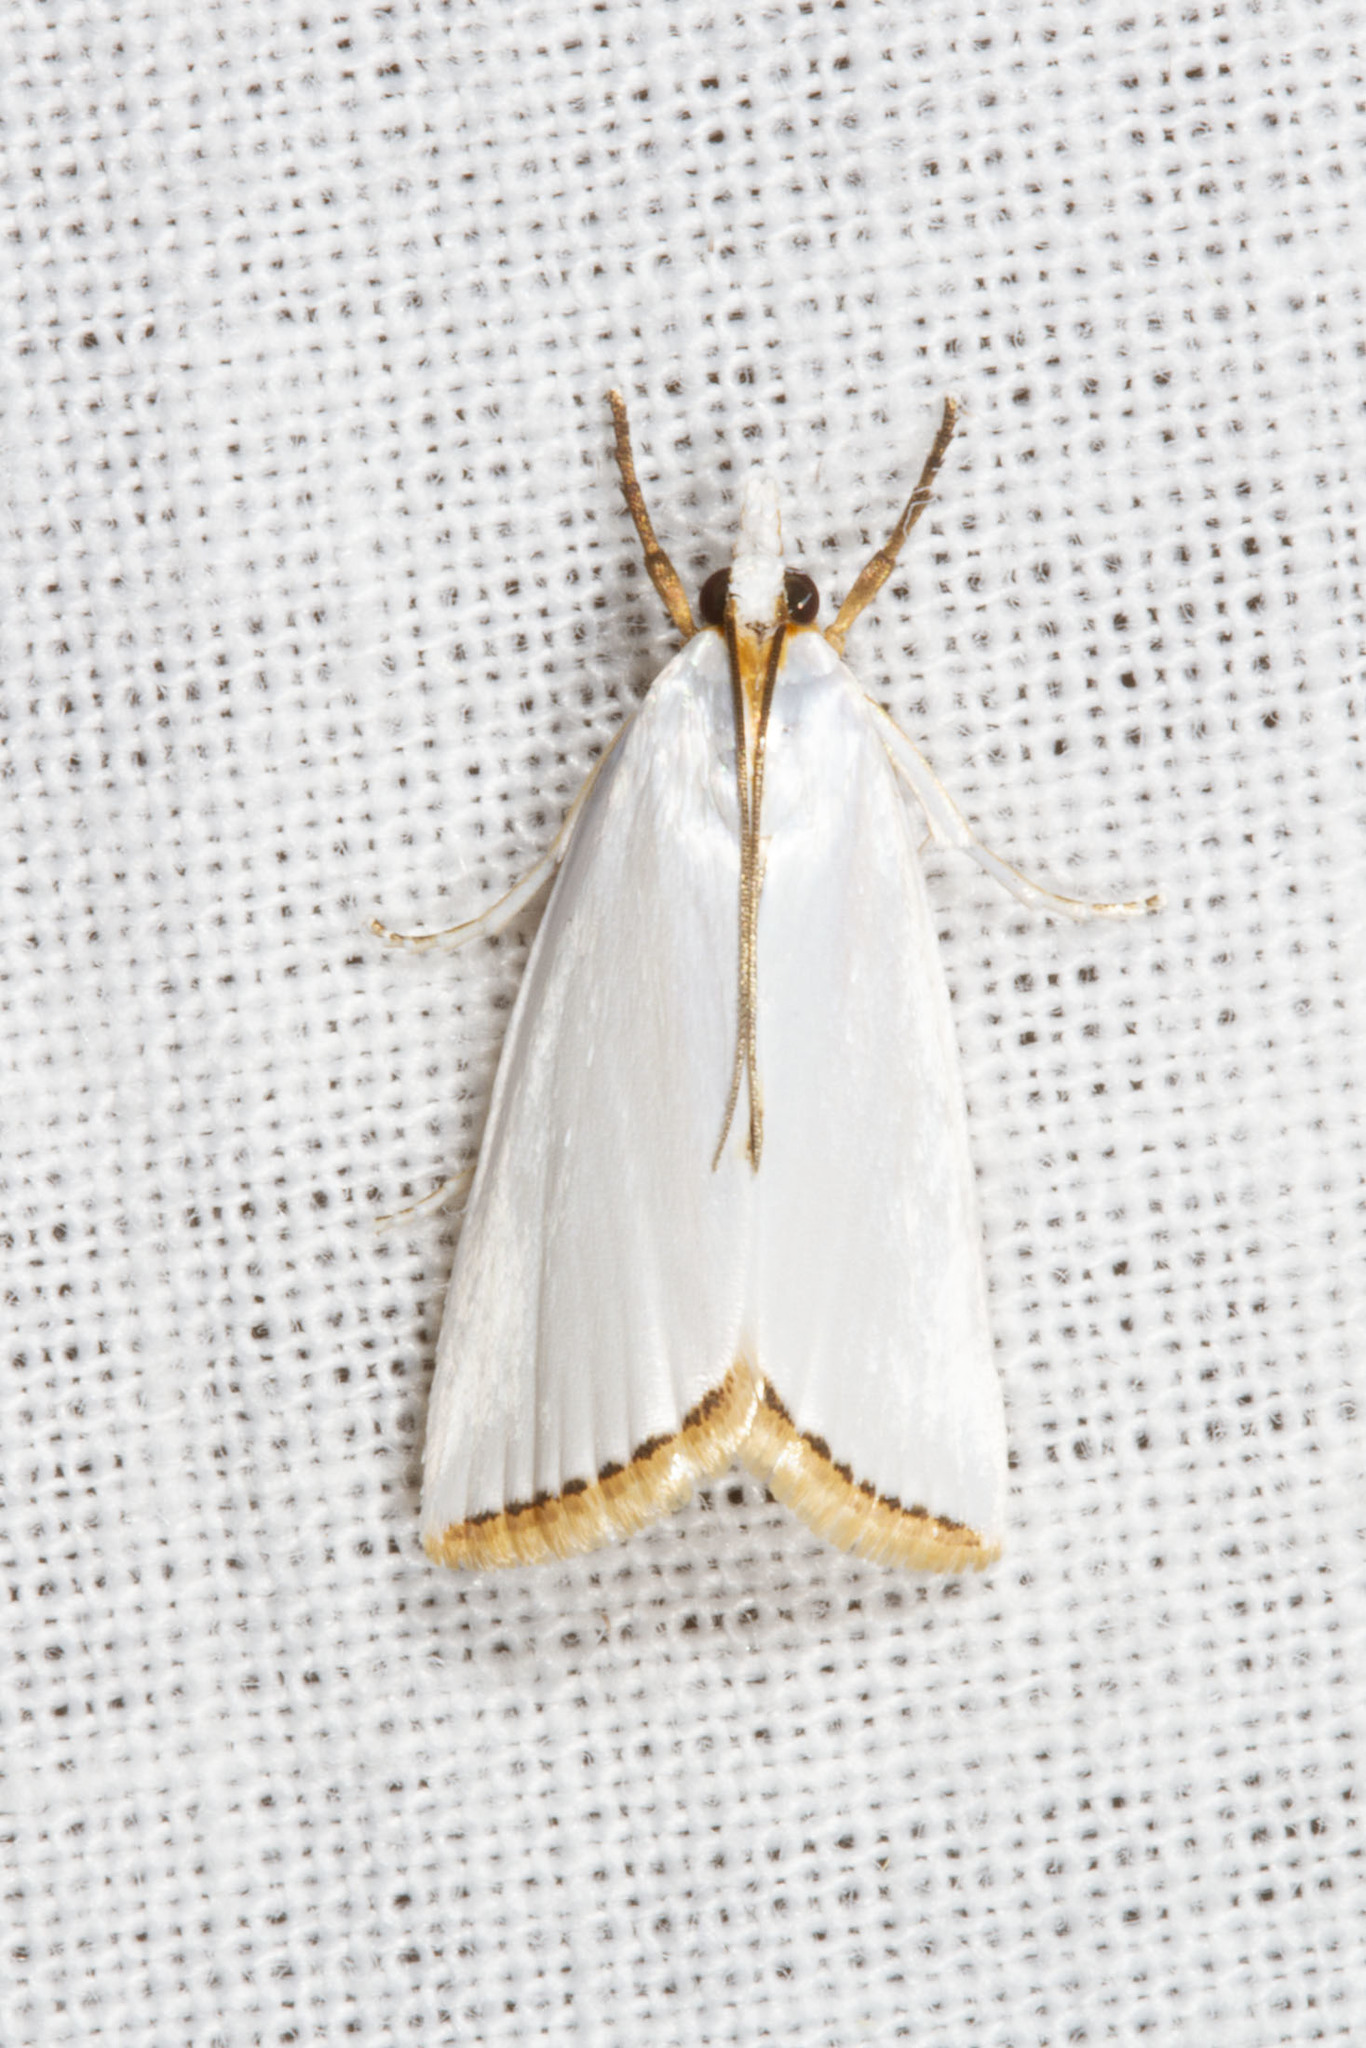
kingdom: Animalia
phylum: Arthropoda
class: Insecta
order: Lepidoptera
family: Crambidae
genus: Argyria
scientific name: Argyria nivalis
